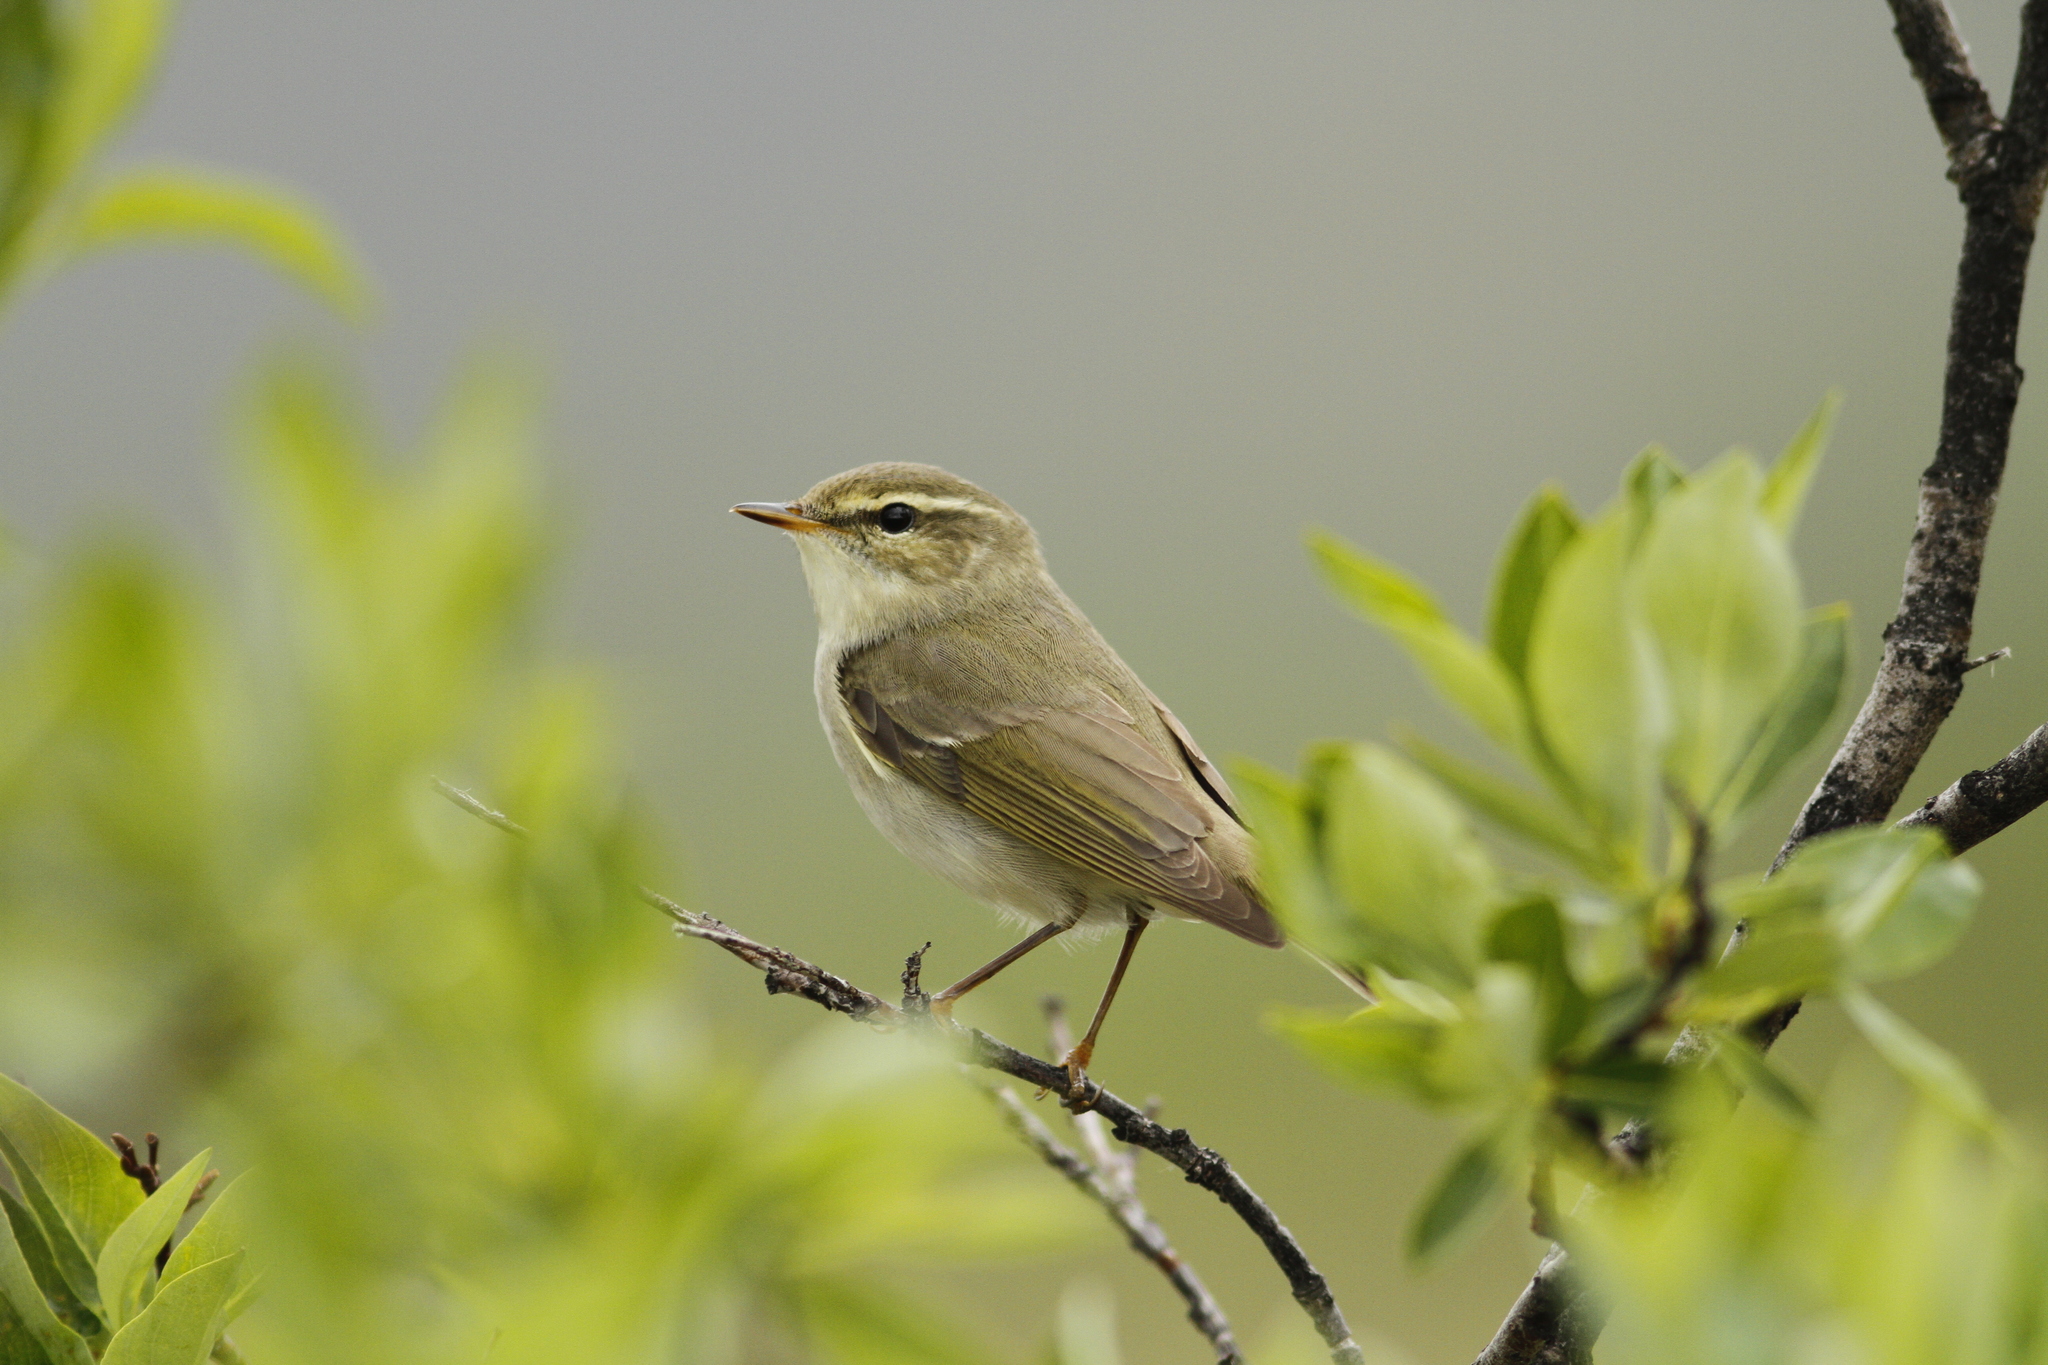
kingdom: Animalia
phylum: Chordata
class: Aves
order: Passeriformes
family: Phylloscopidae
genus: Phylloscopus
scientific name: Phylloscopus borealis
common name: Arctic warbler
